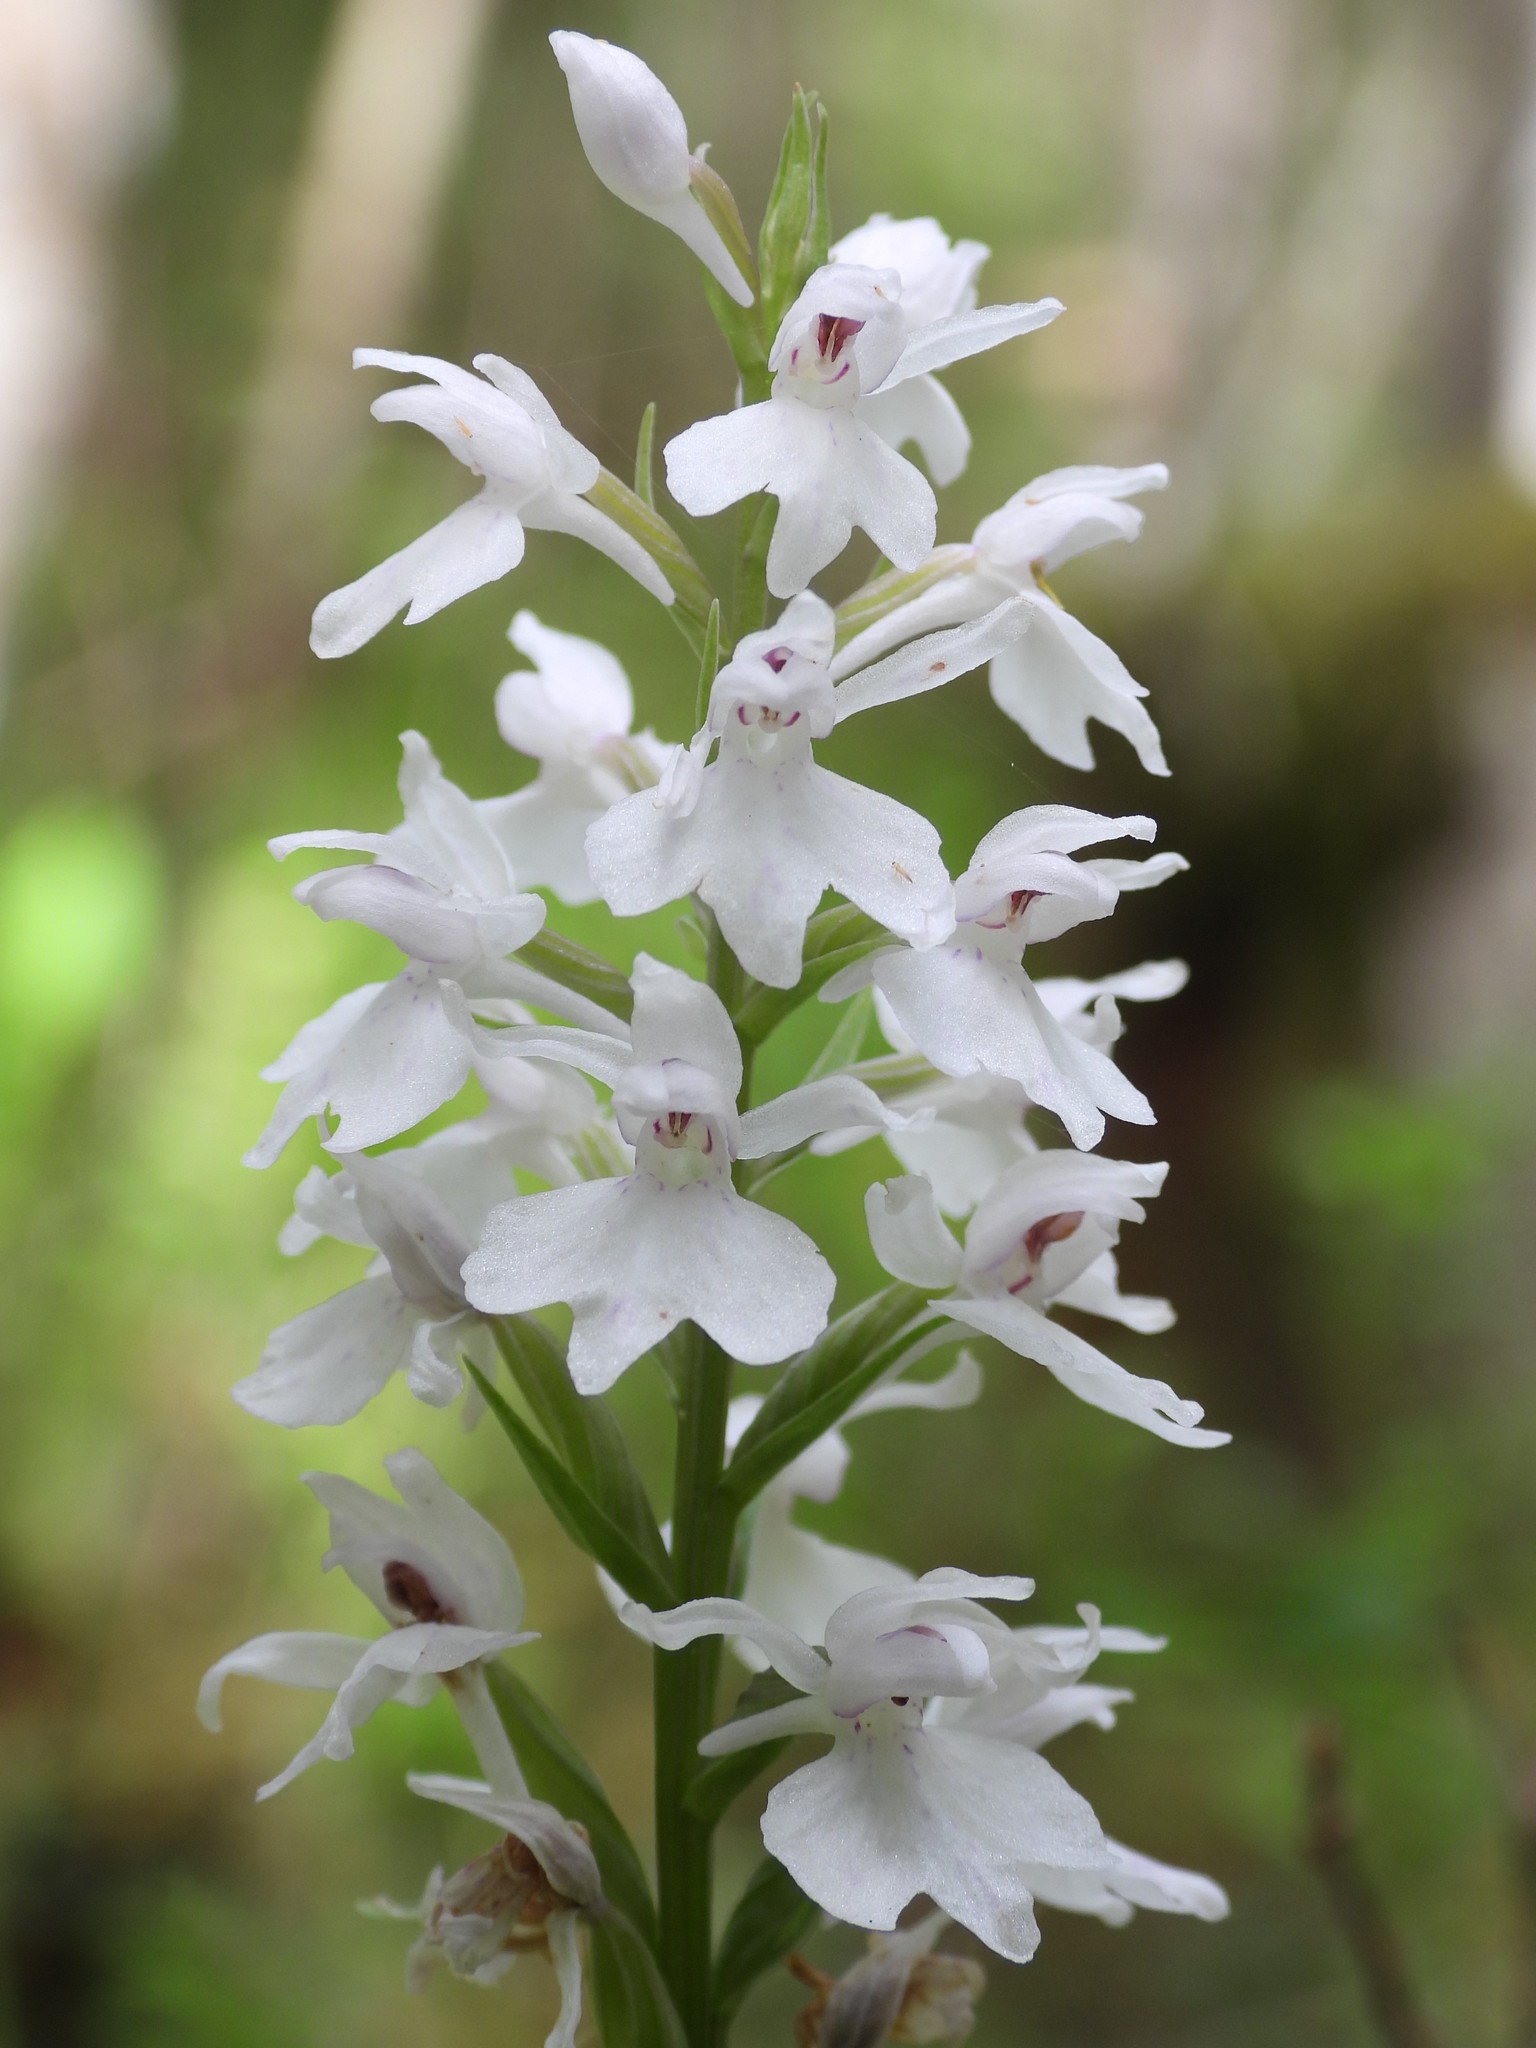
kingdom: Plantae
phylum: Tracheophyta
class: Liliopsida
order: Asparagales
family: Orchidaceae
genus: Dactylorhiza
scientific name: Dactylorhiza maculata
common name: Heath spotted-orchid
